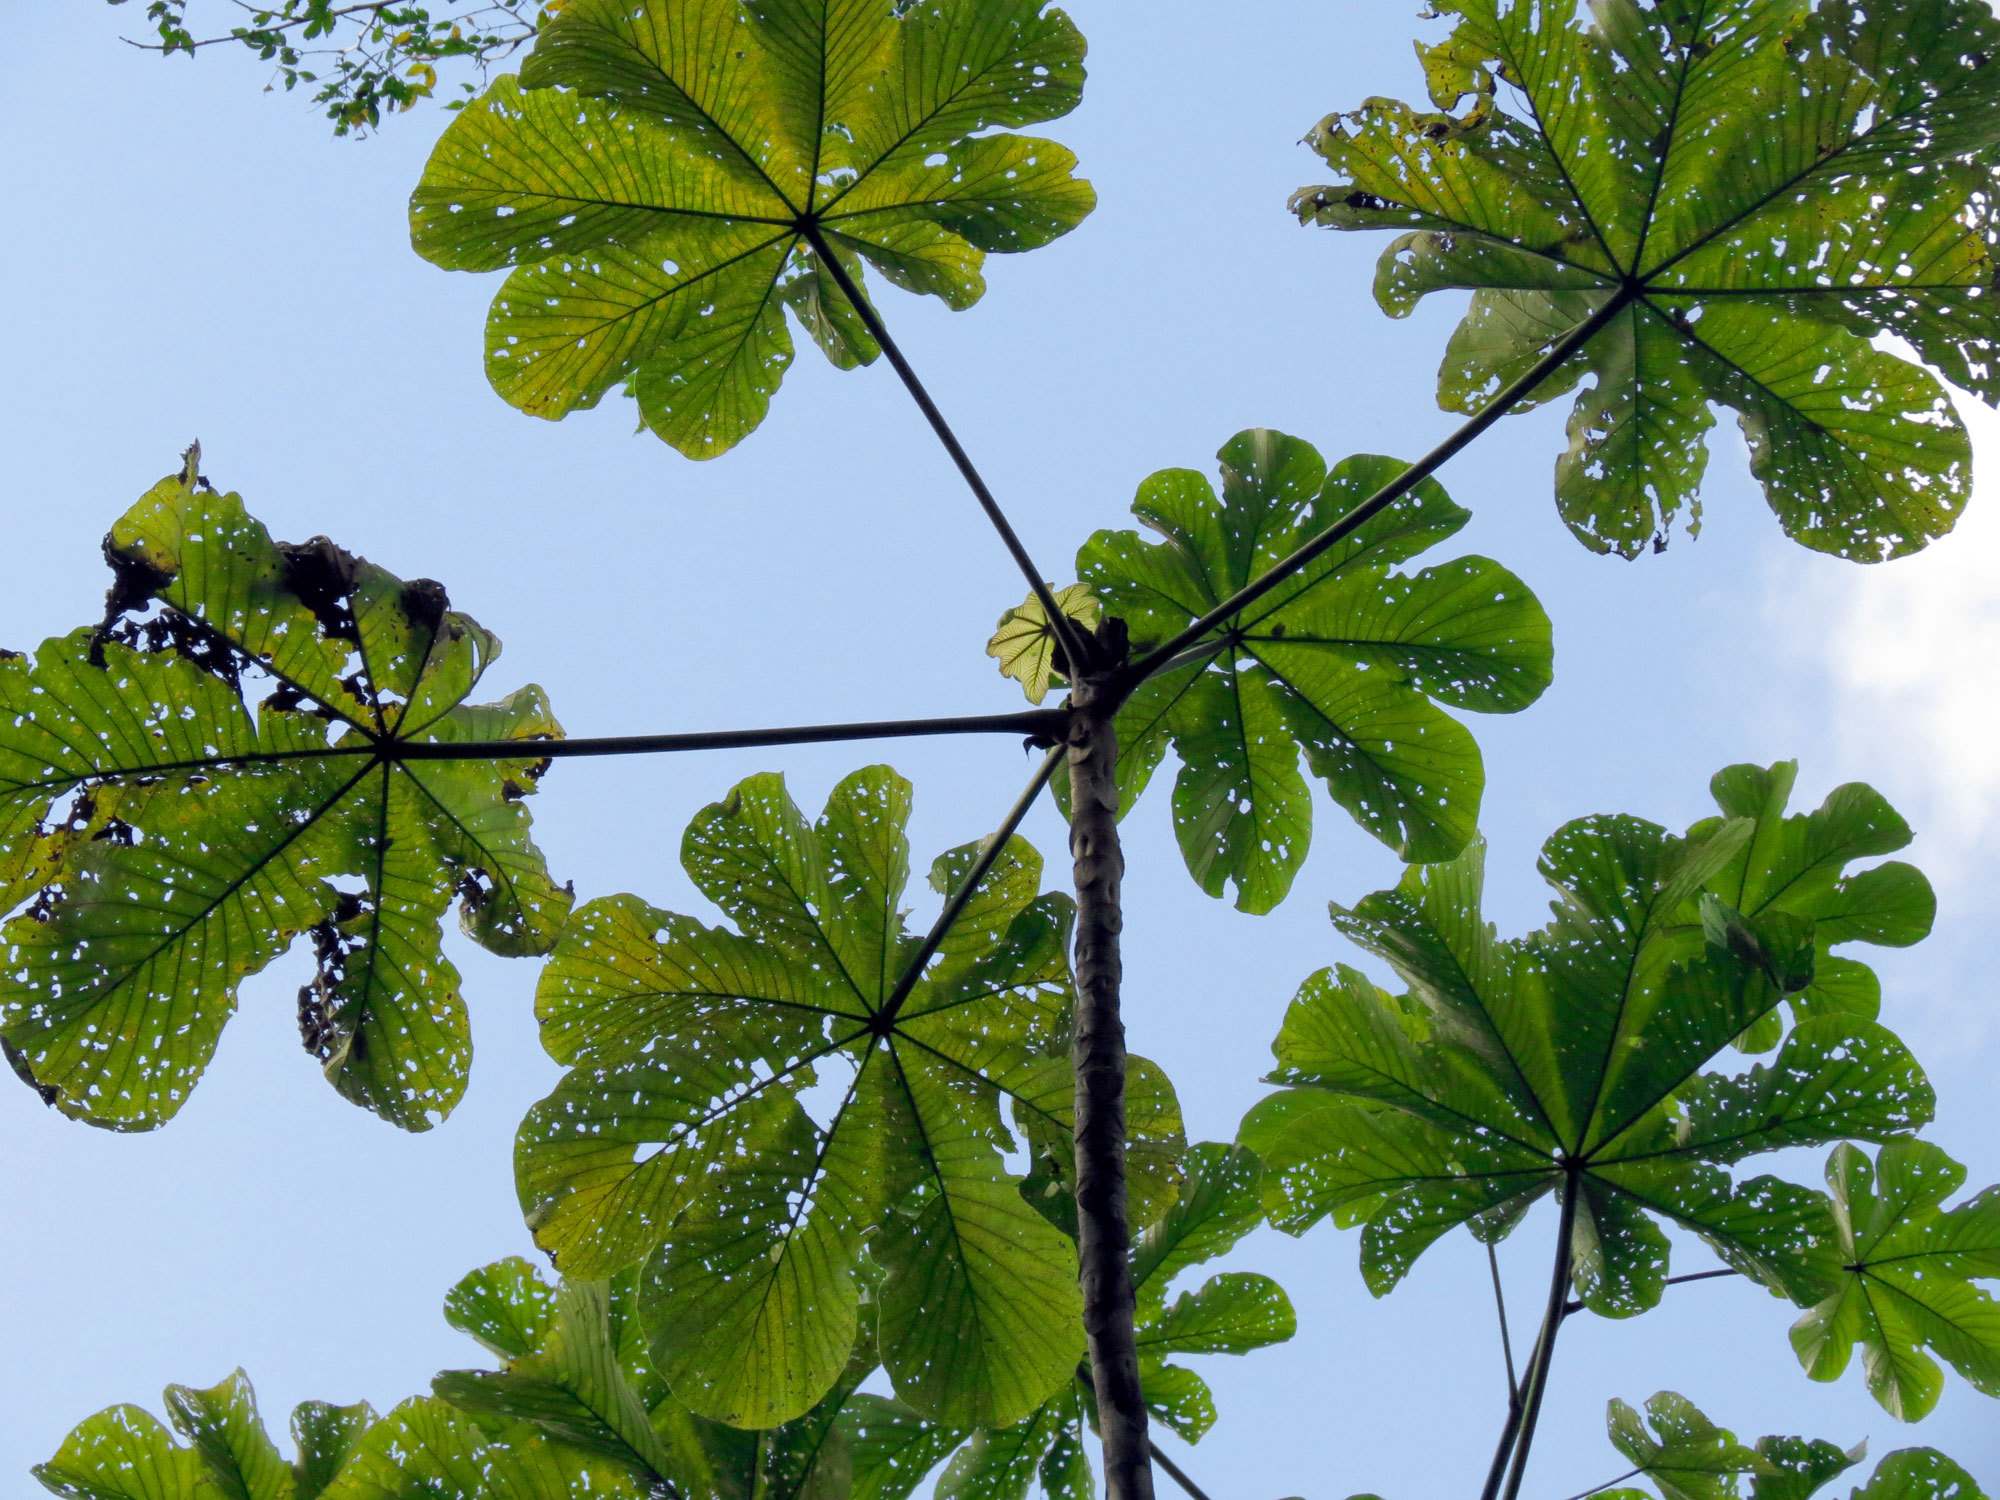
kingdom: Plantae
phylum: Tracheophyta
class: Magnoliopsida
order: Rosales
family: Urticaceae
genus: Cecropia
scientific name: Cecropia longipes
